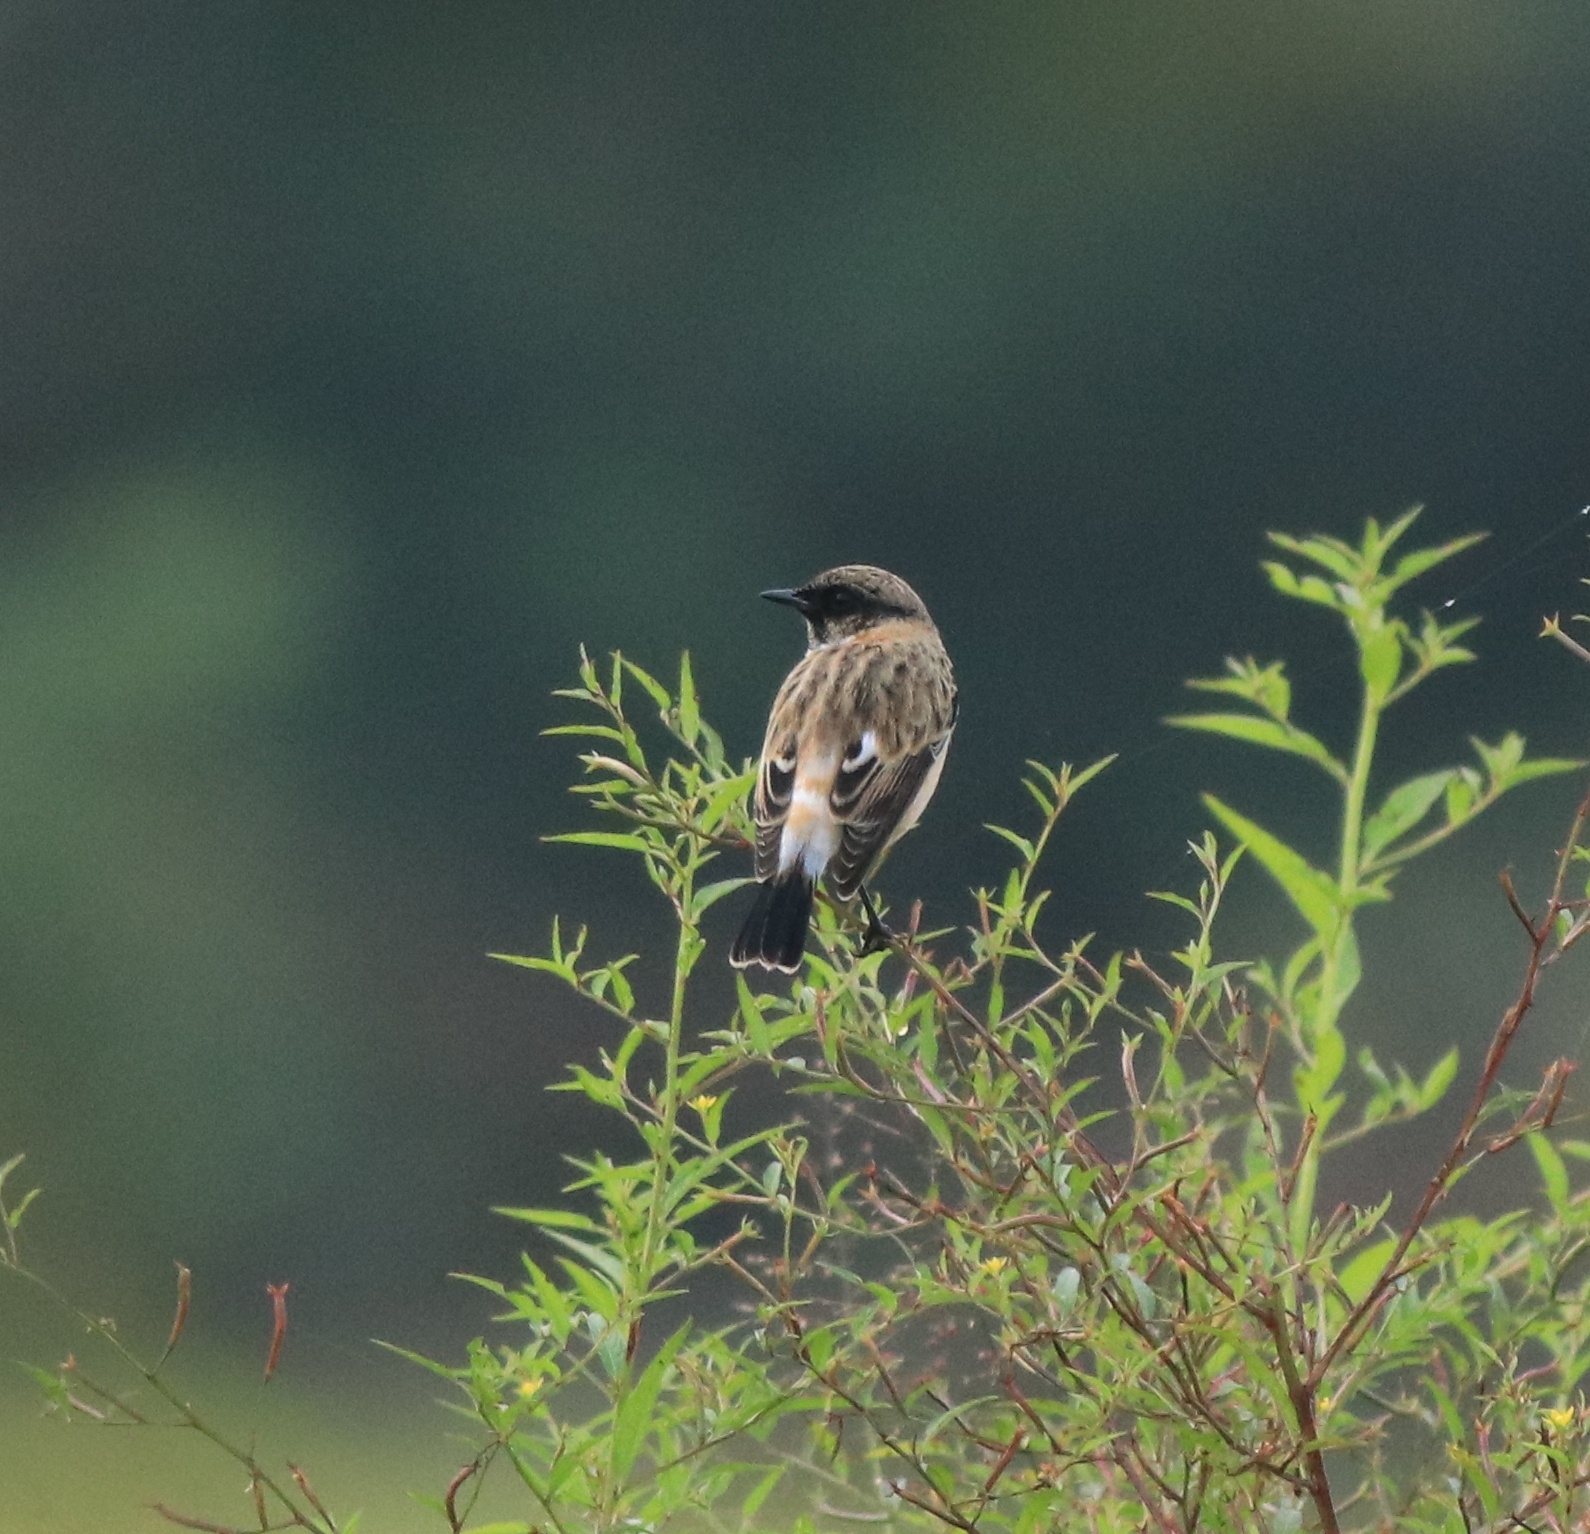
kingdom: Animalia
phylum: Chordata
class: Aves
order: Passeriformes
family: Muscicapidae
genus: Saxicola
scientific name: Saxicola maurus
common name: Siberian stonechat
